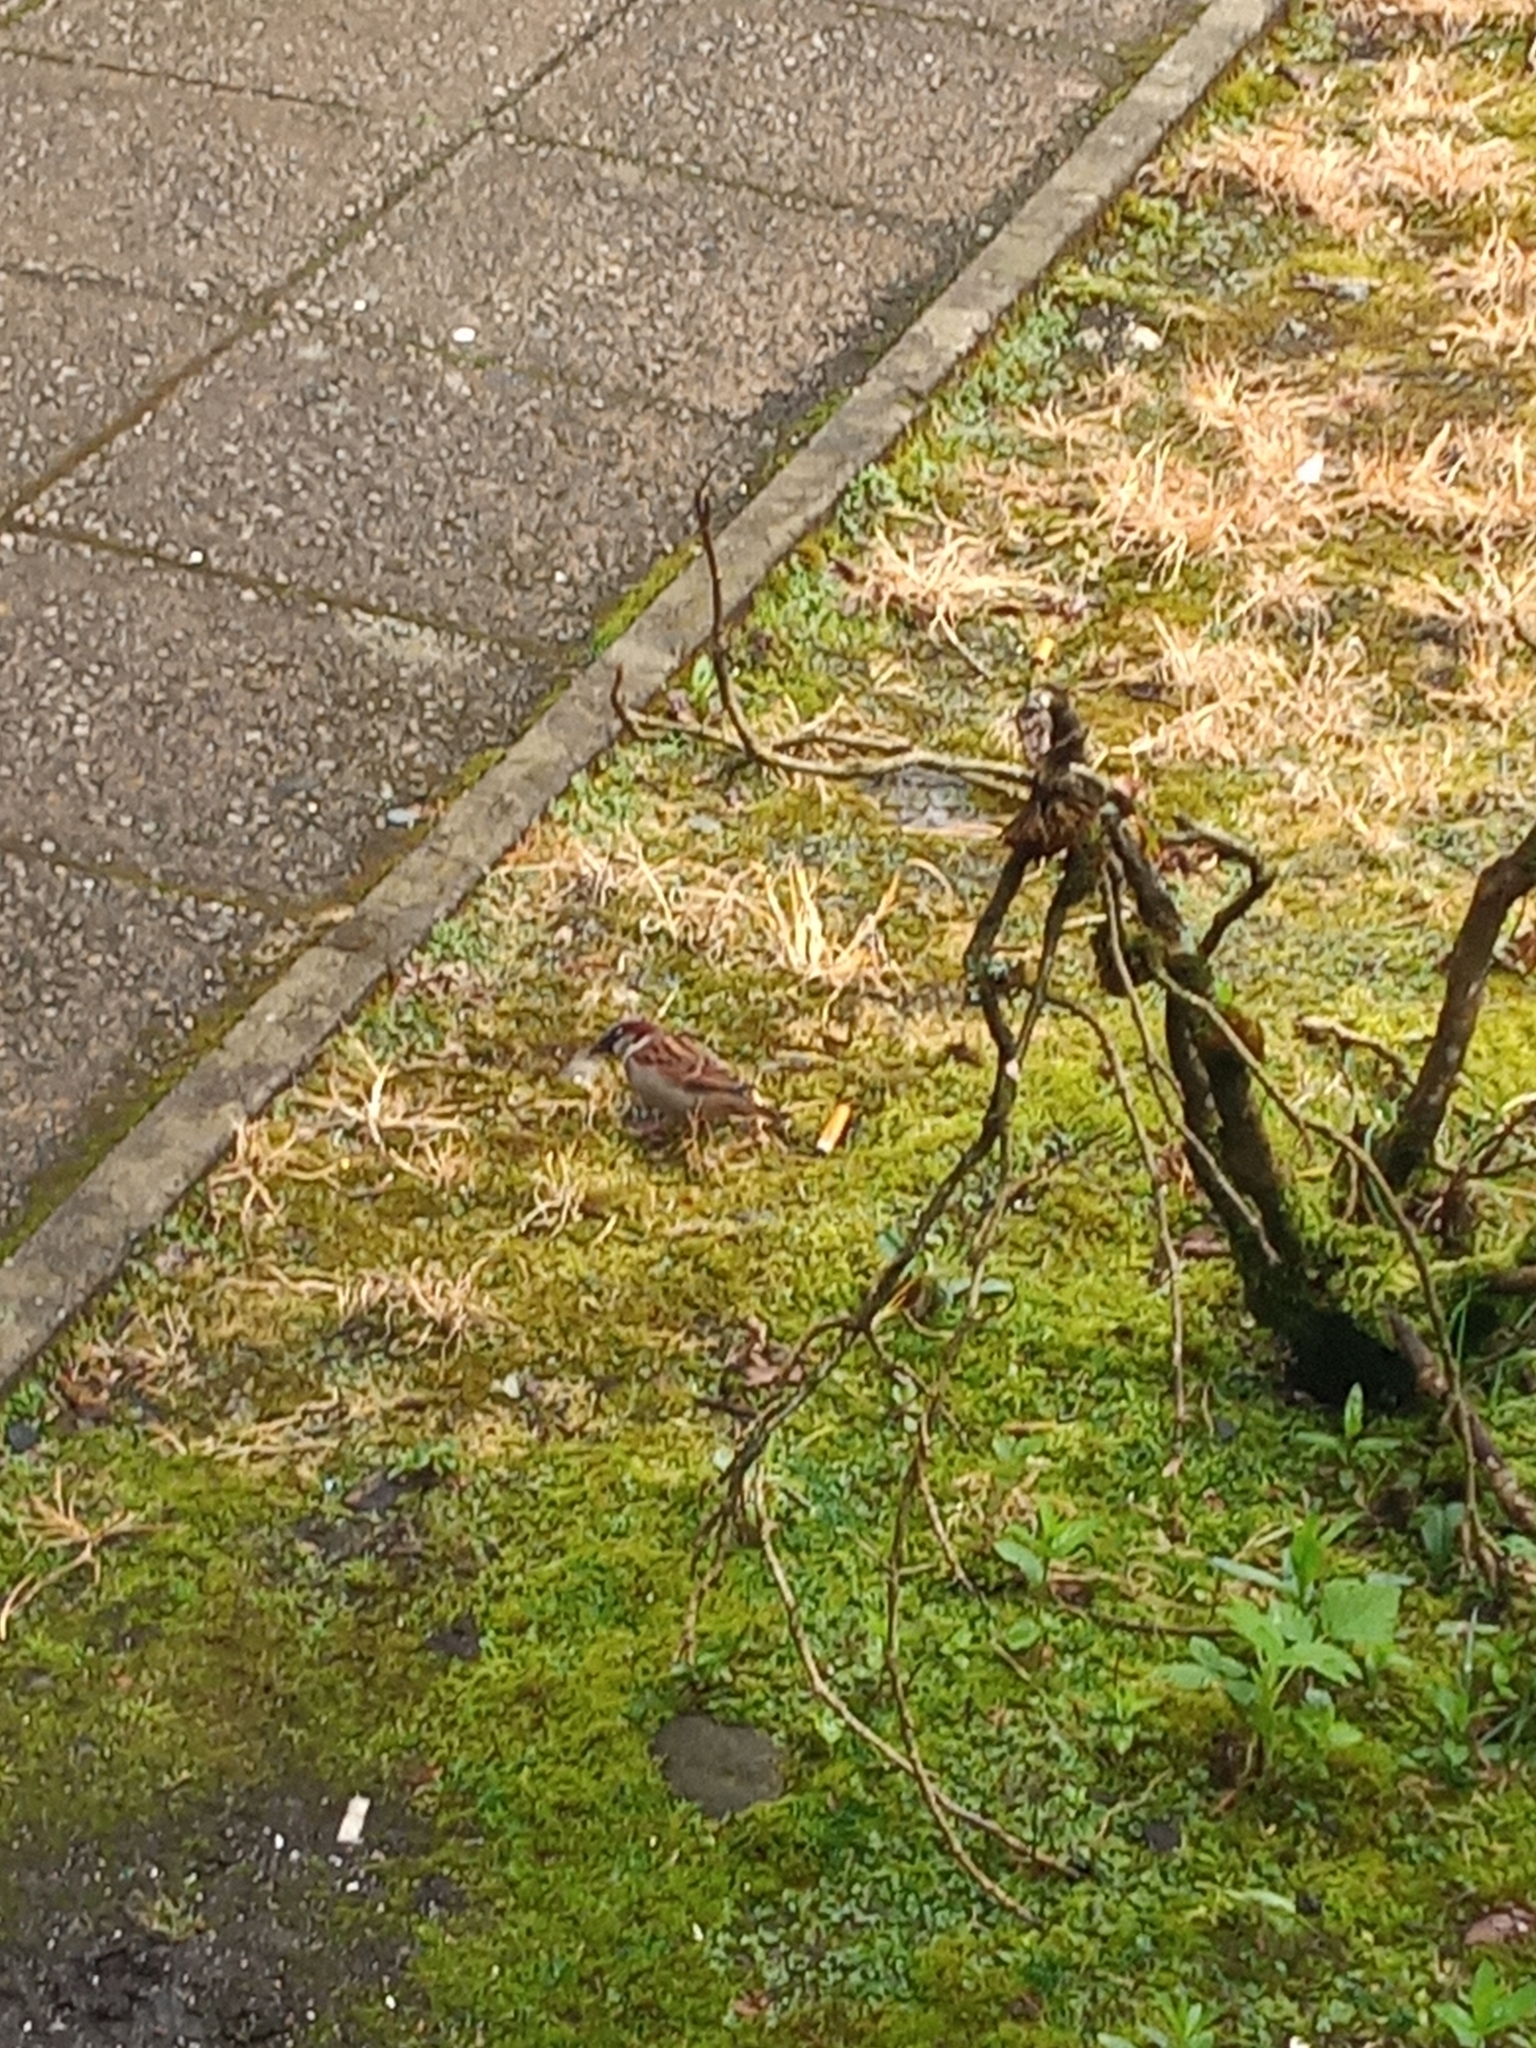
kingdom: Animalia
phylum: Chordata
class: Aves
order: Passeriformes
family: Passeridae
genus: Passer
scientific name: Passer domesticus
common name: House sparrow
